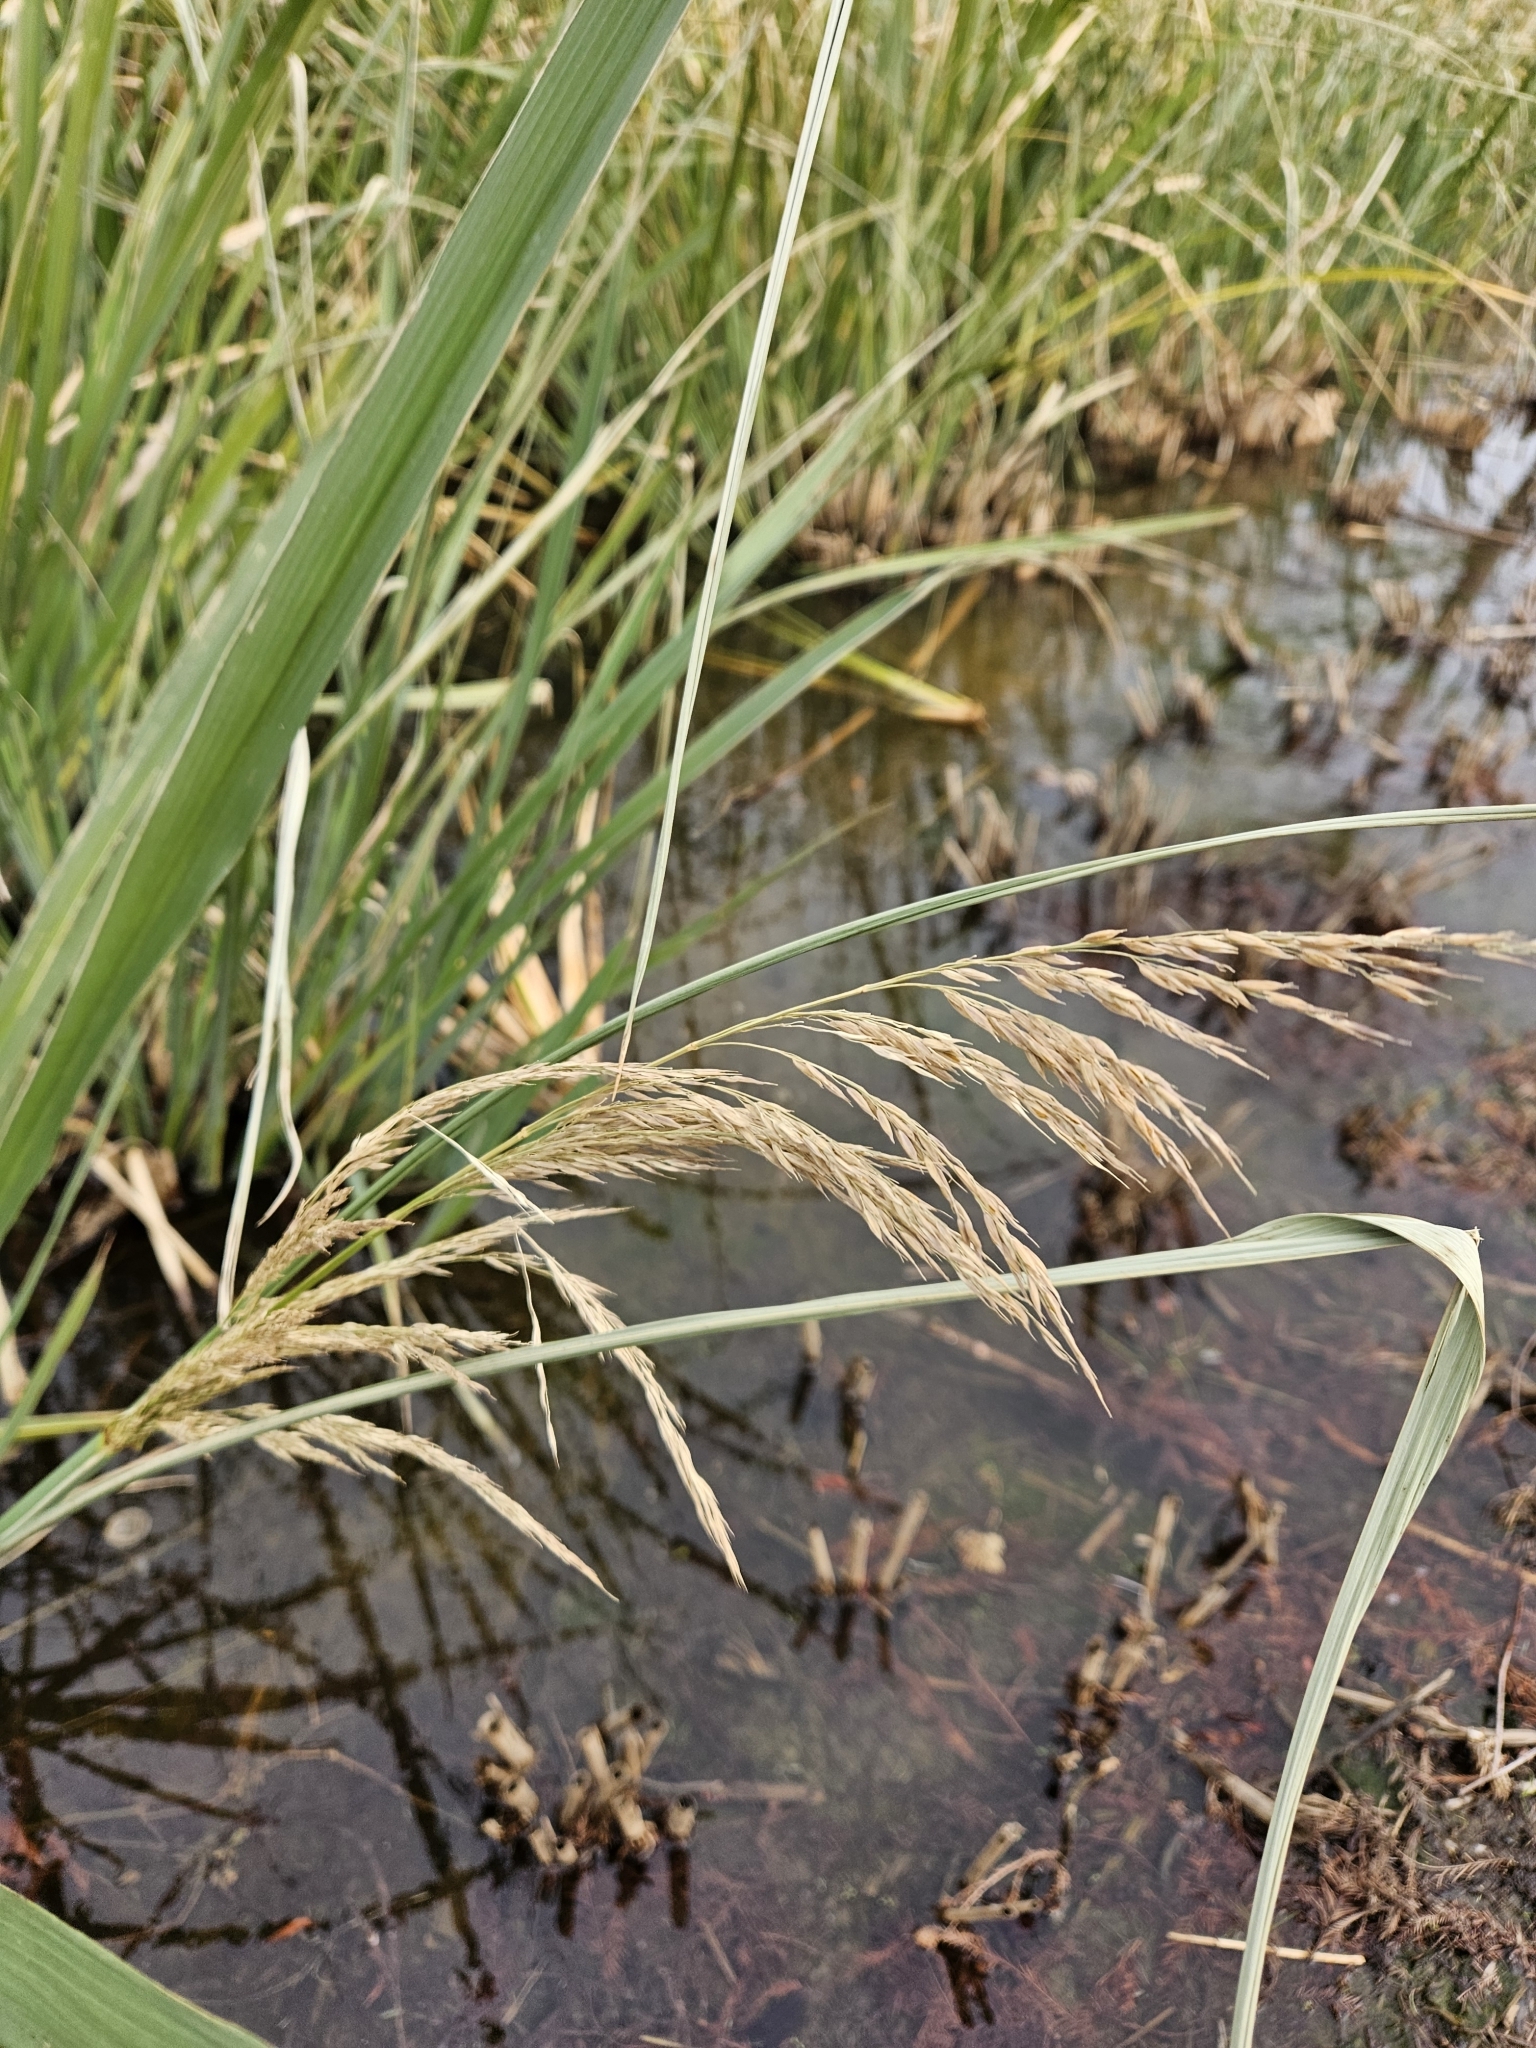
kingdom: Plantae
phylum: Tracheophyta
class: Liliopsida
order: Poales
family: Poaceae
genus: Zizaniopsis
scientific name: Zizaniopsis miliacea
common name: Giant-cutgrass
